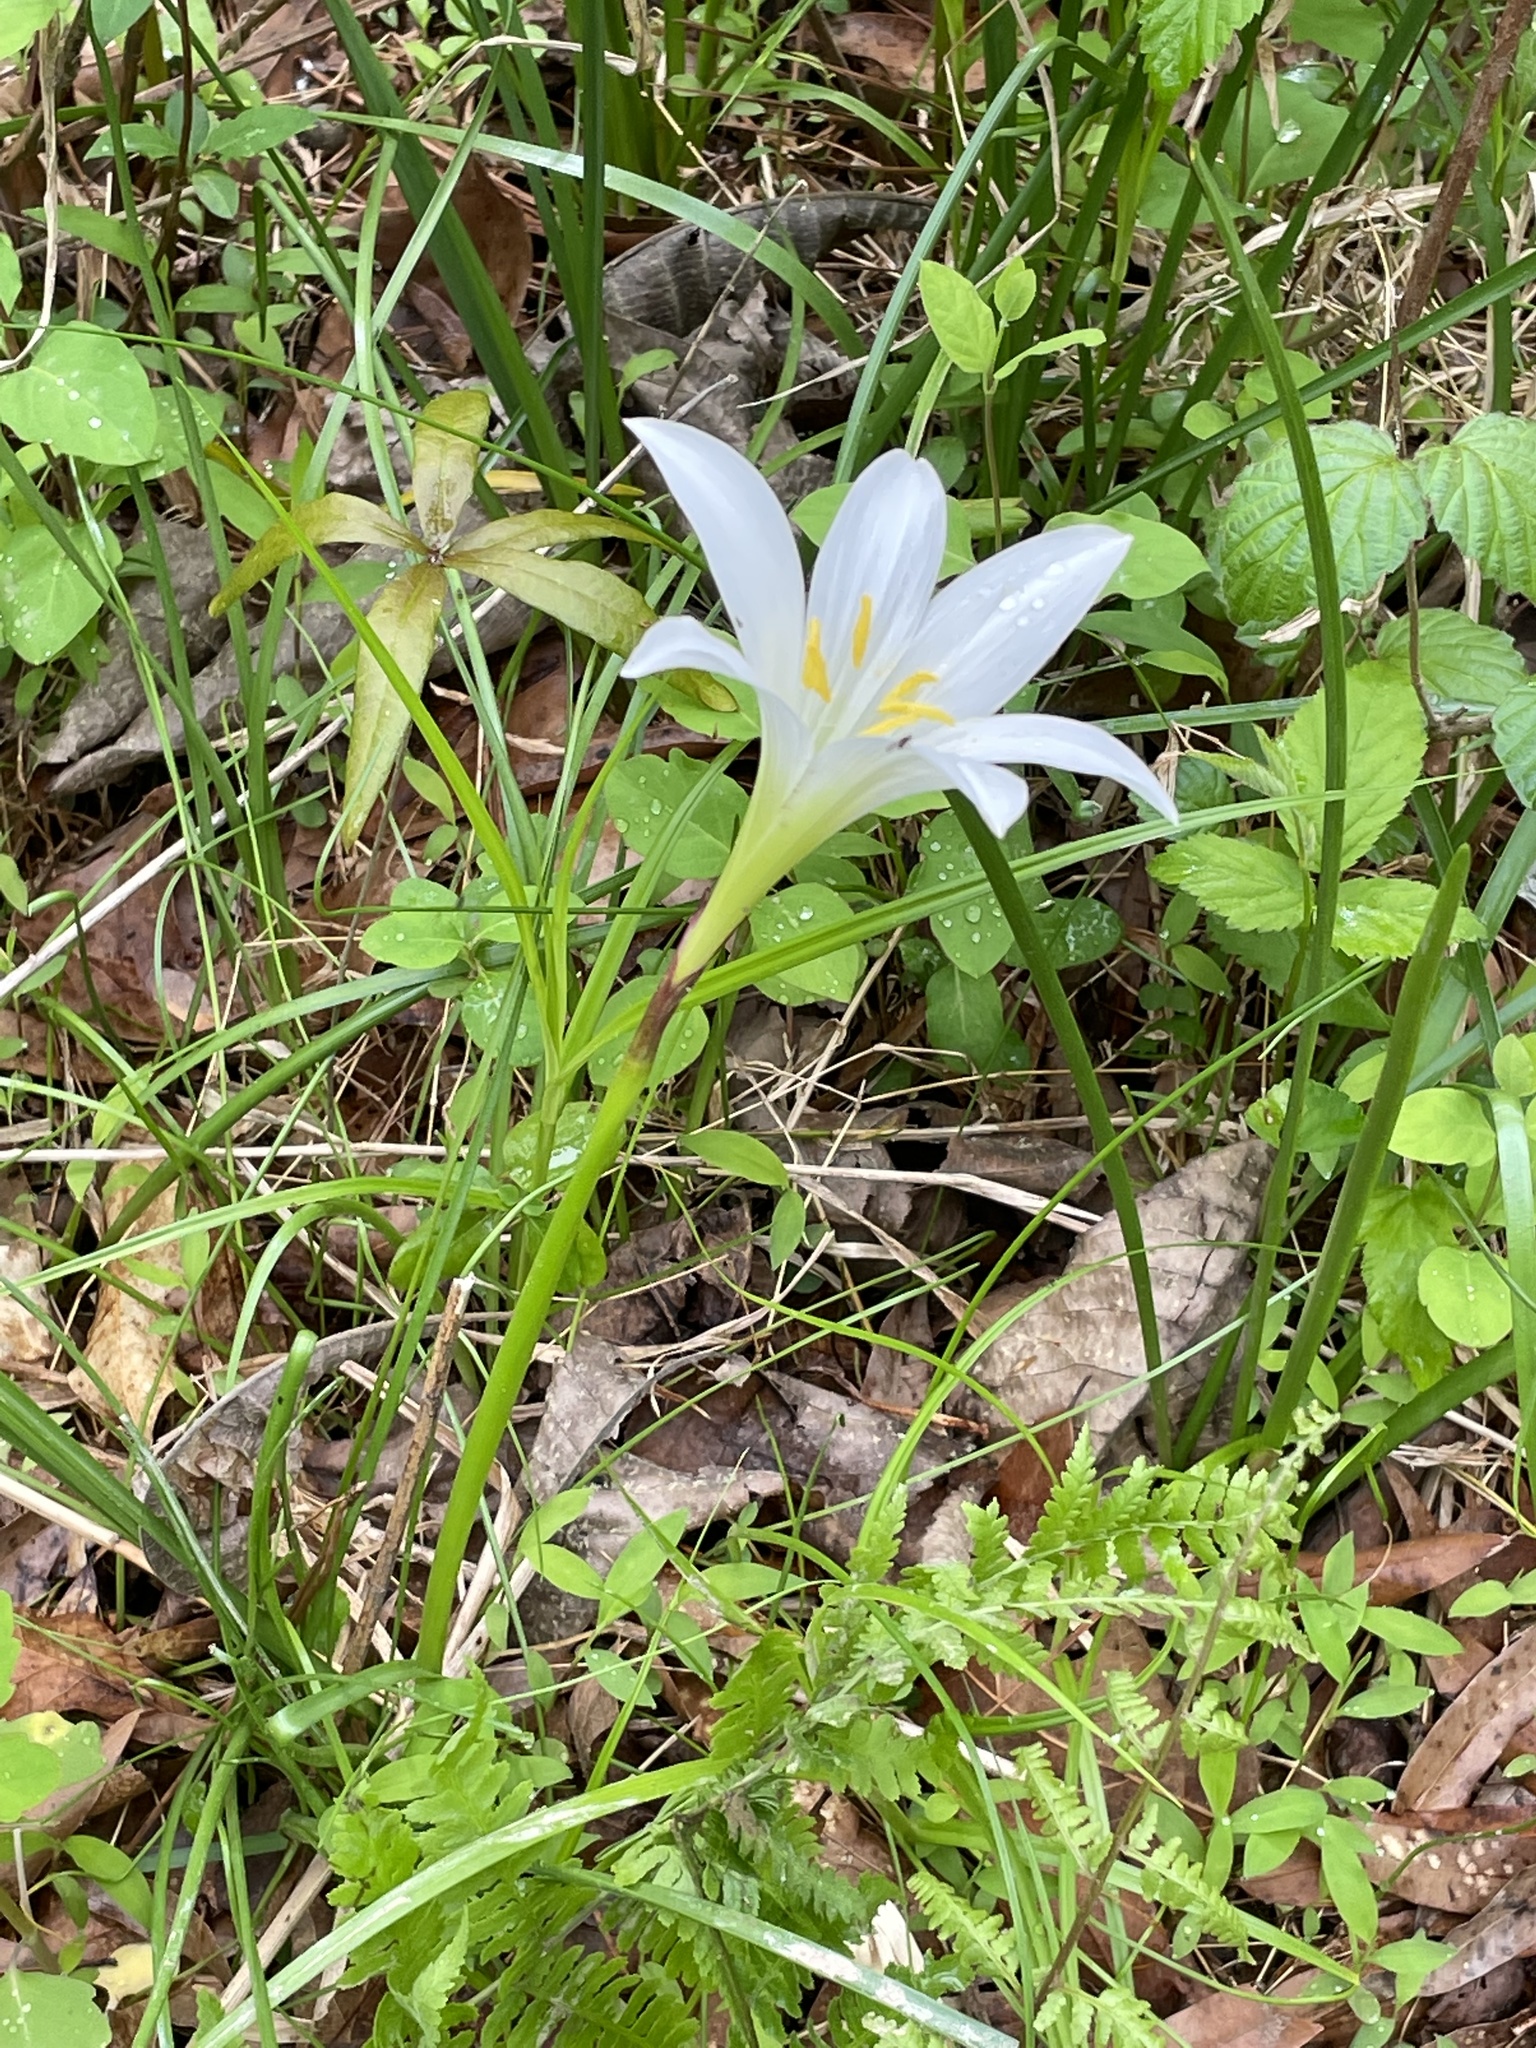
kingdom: Plantae
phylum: Tracheophyta
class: Liliopsida
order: Asparagales
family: Amaryllidaceae
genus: Zephyranthes
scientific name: Zephyranthes atamasco
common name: Atamasco lily
